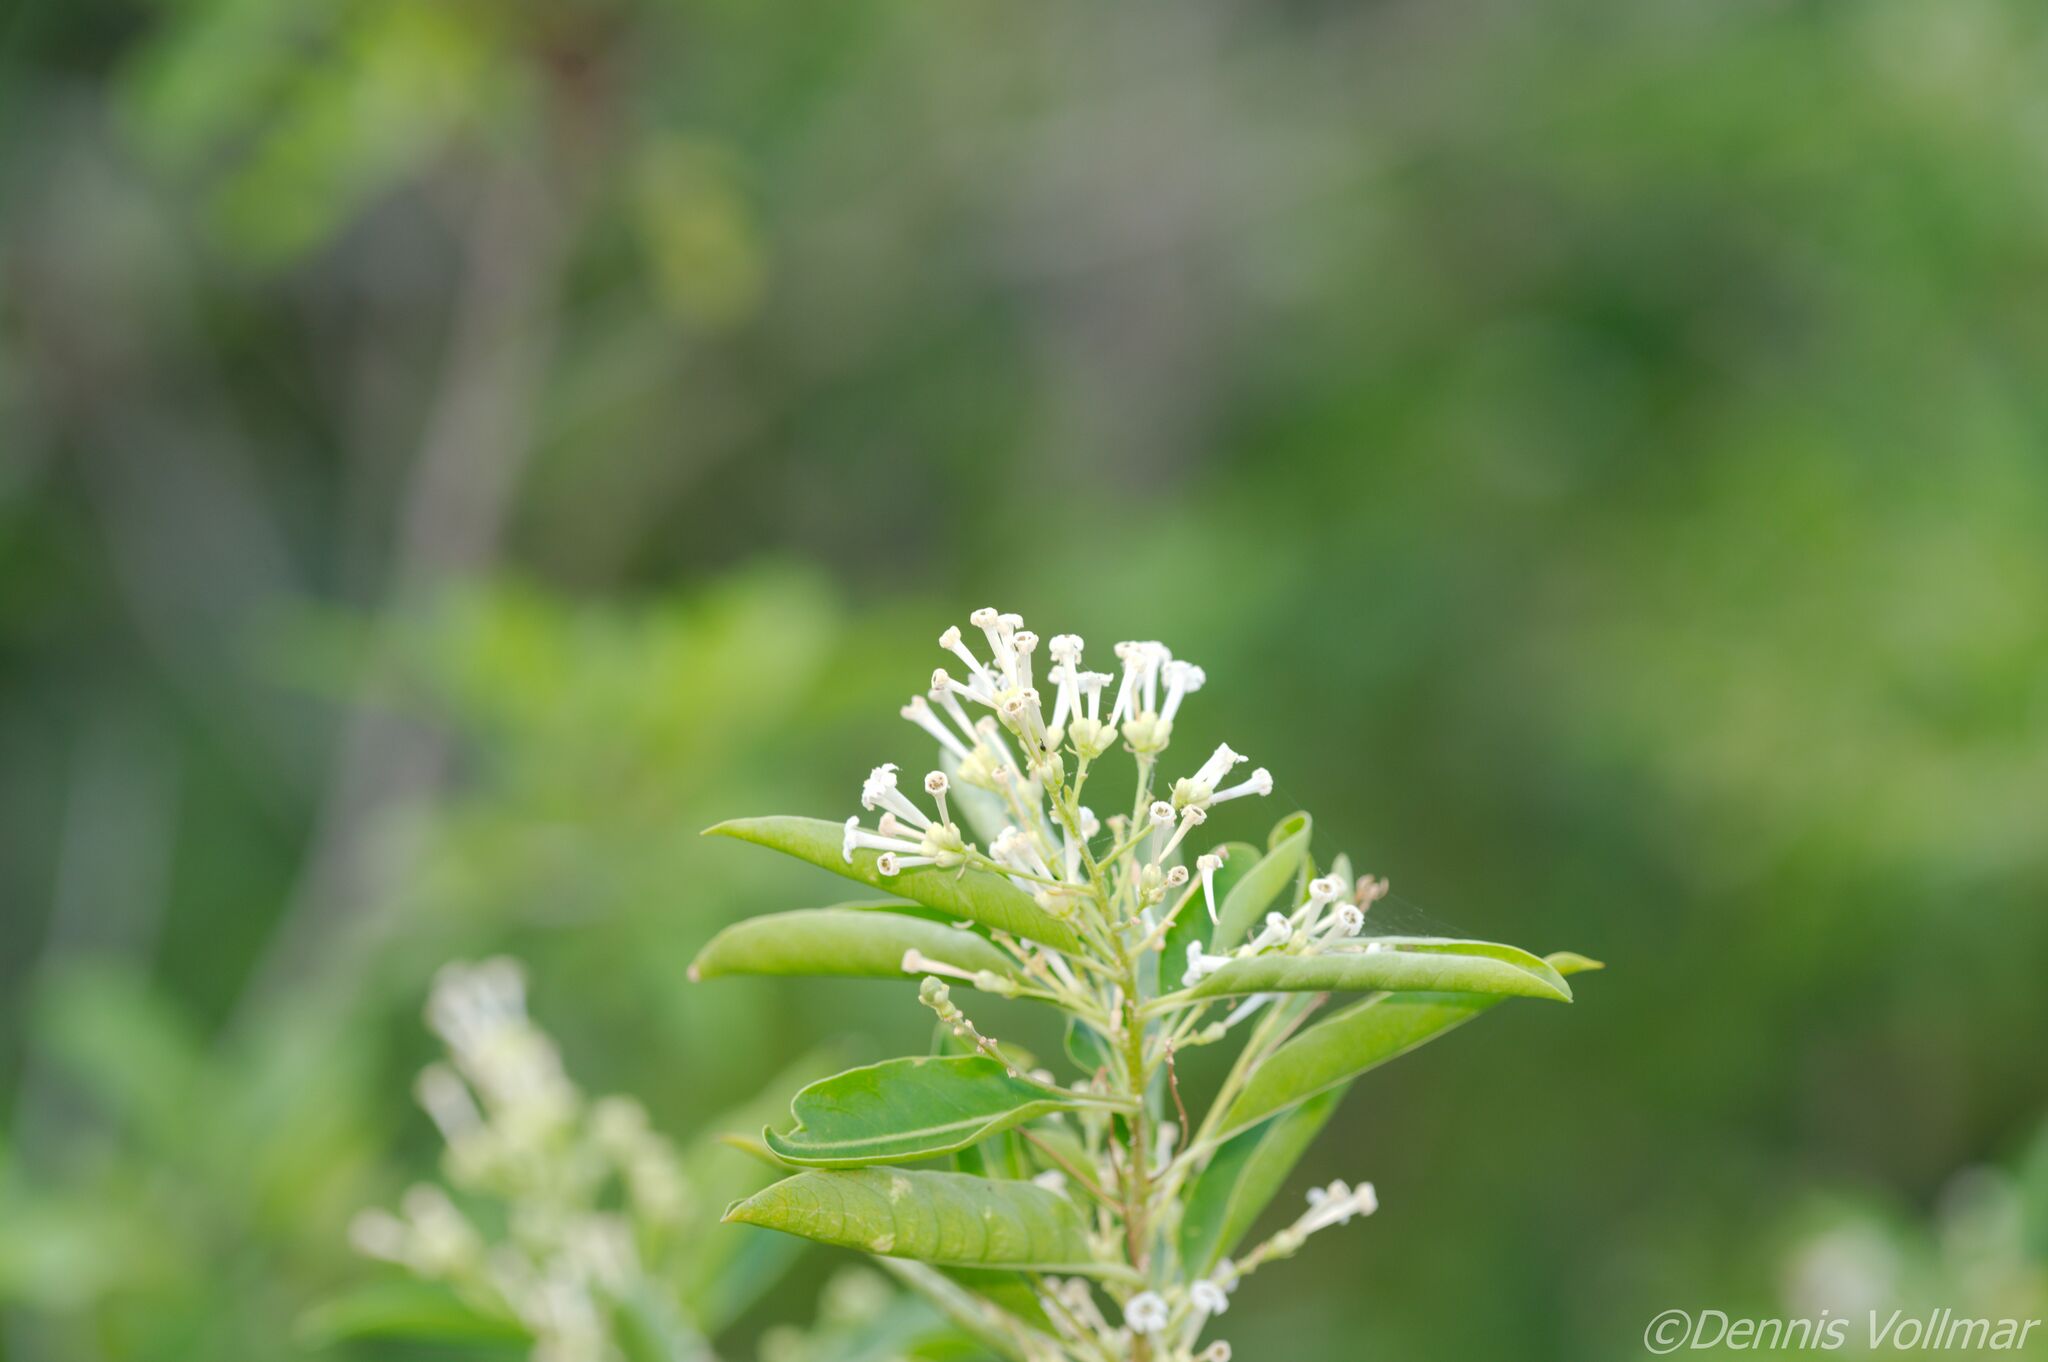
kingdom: Plantae
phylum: Tracheophyta
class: Magnoliopsida
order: Solanales
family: Solanaceae
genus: Cestrum
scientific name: Cestrum diurnum
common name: Day jessamine
